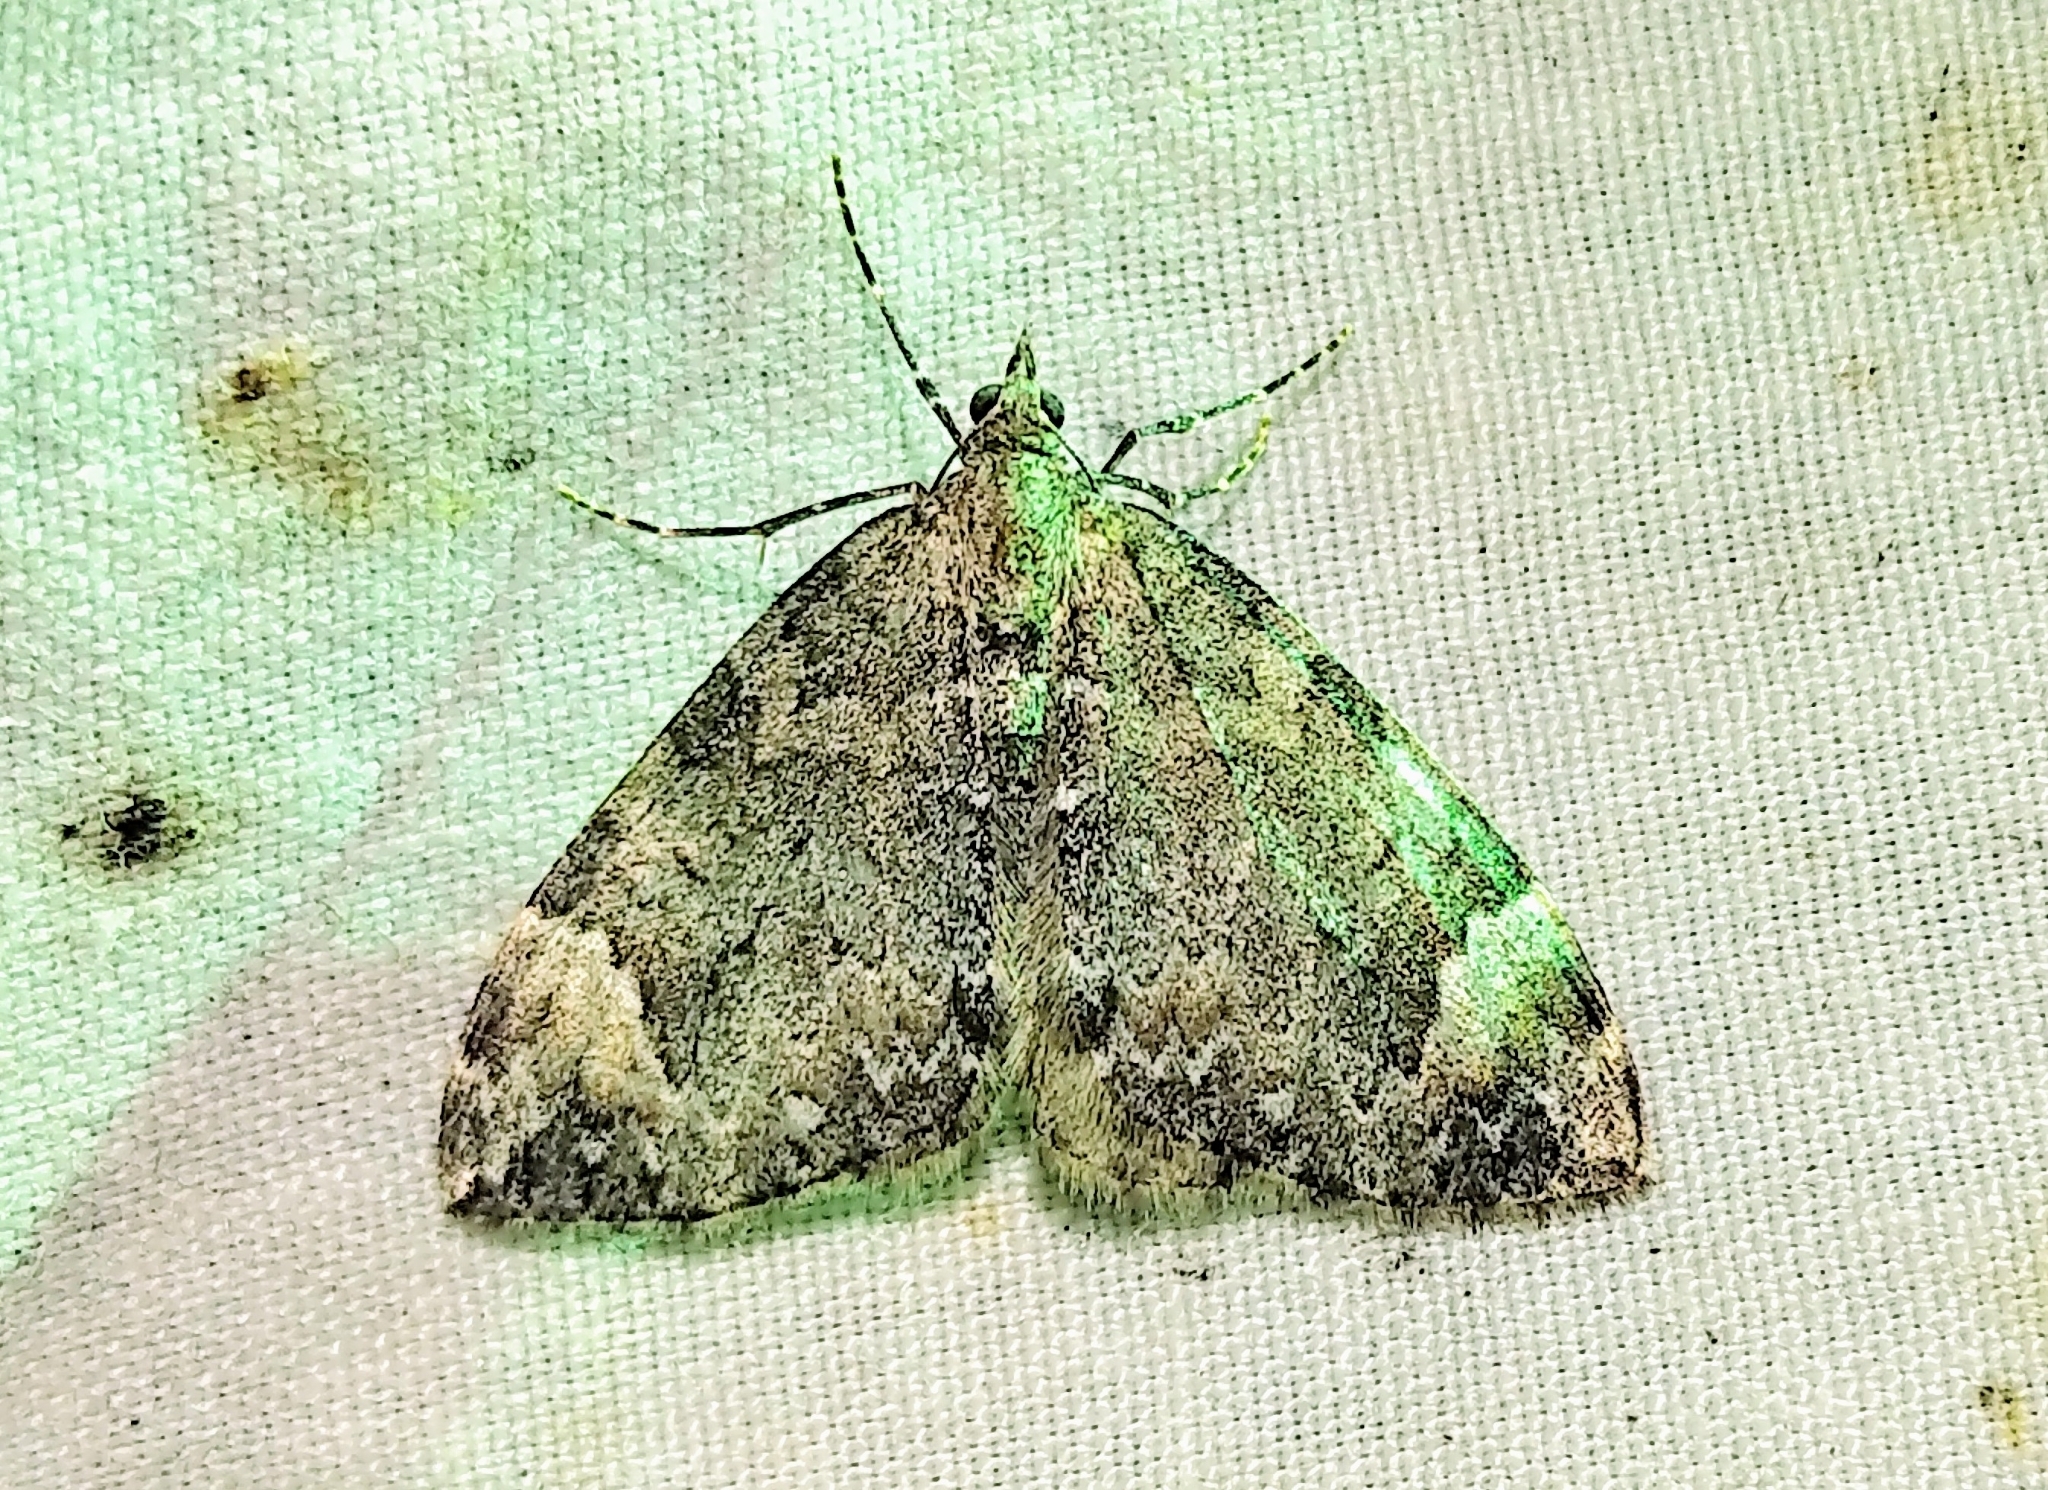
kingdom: Animalia
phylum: Arthropoda
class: Insecta
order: Lepidoptera
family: Geometridae
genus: Dysstroma
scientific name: Dysstroma citrata
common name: Dark marbled carpet
